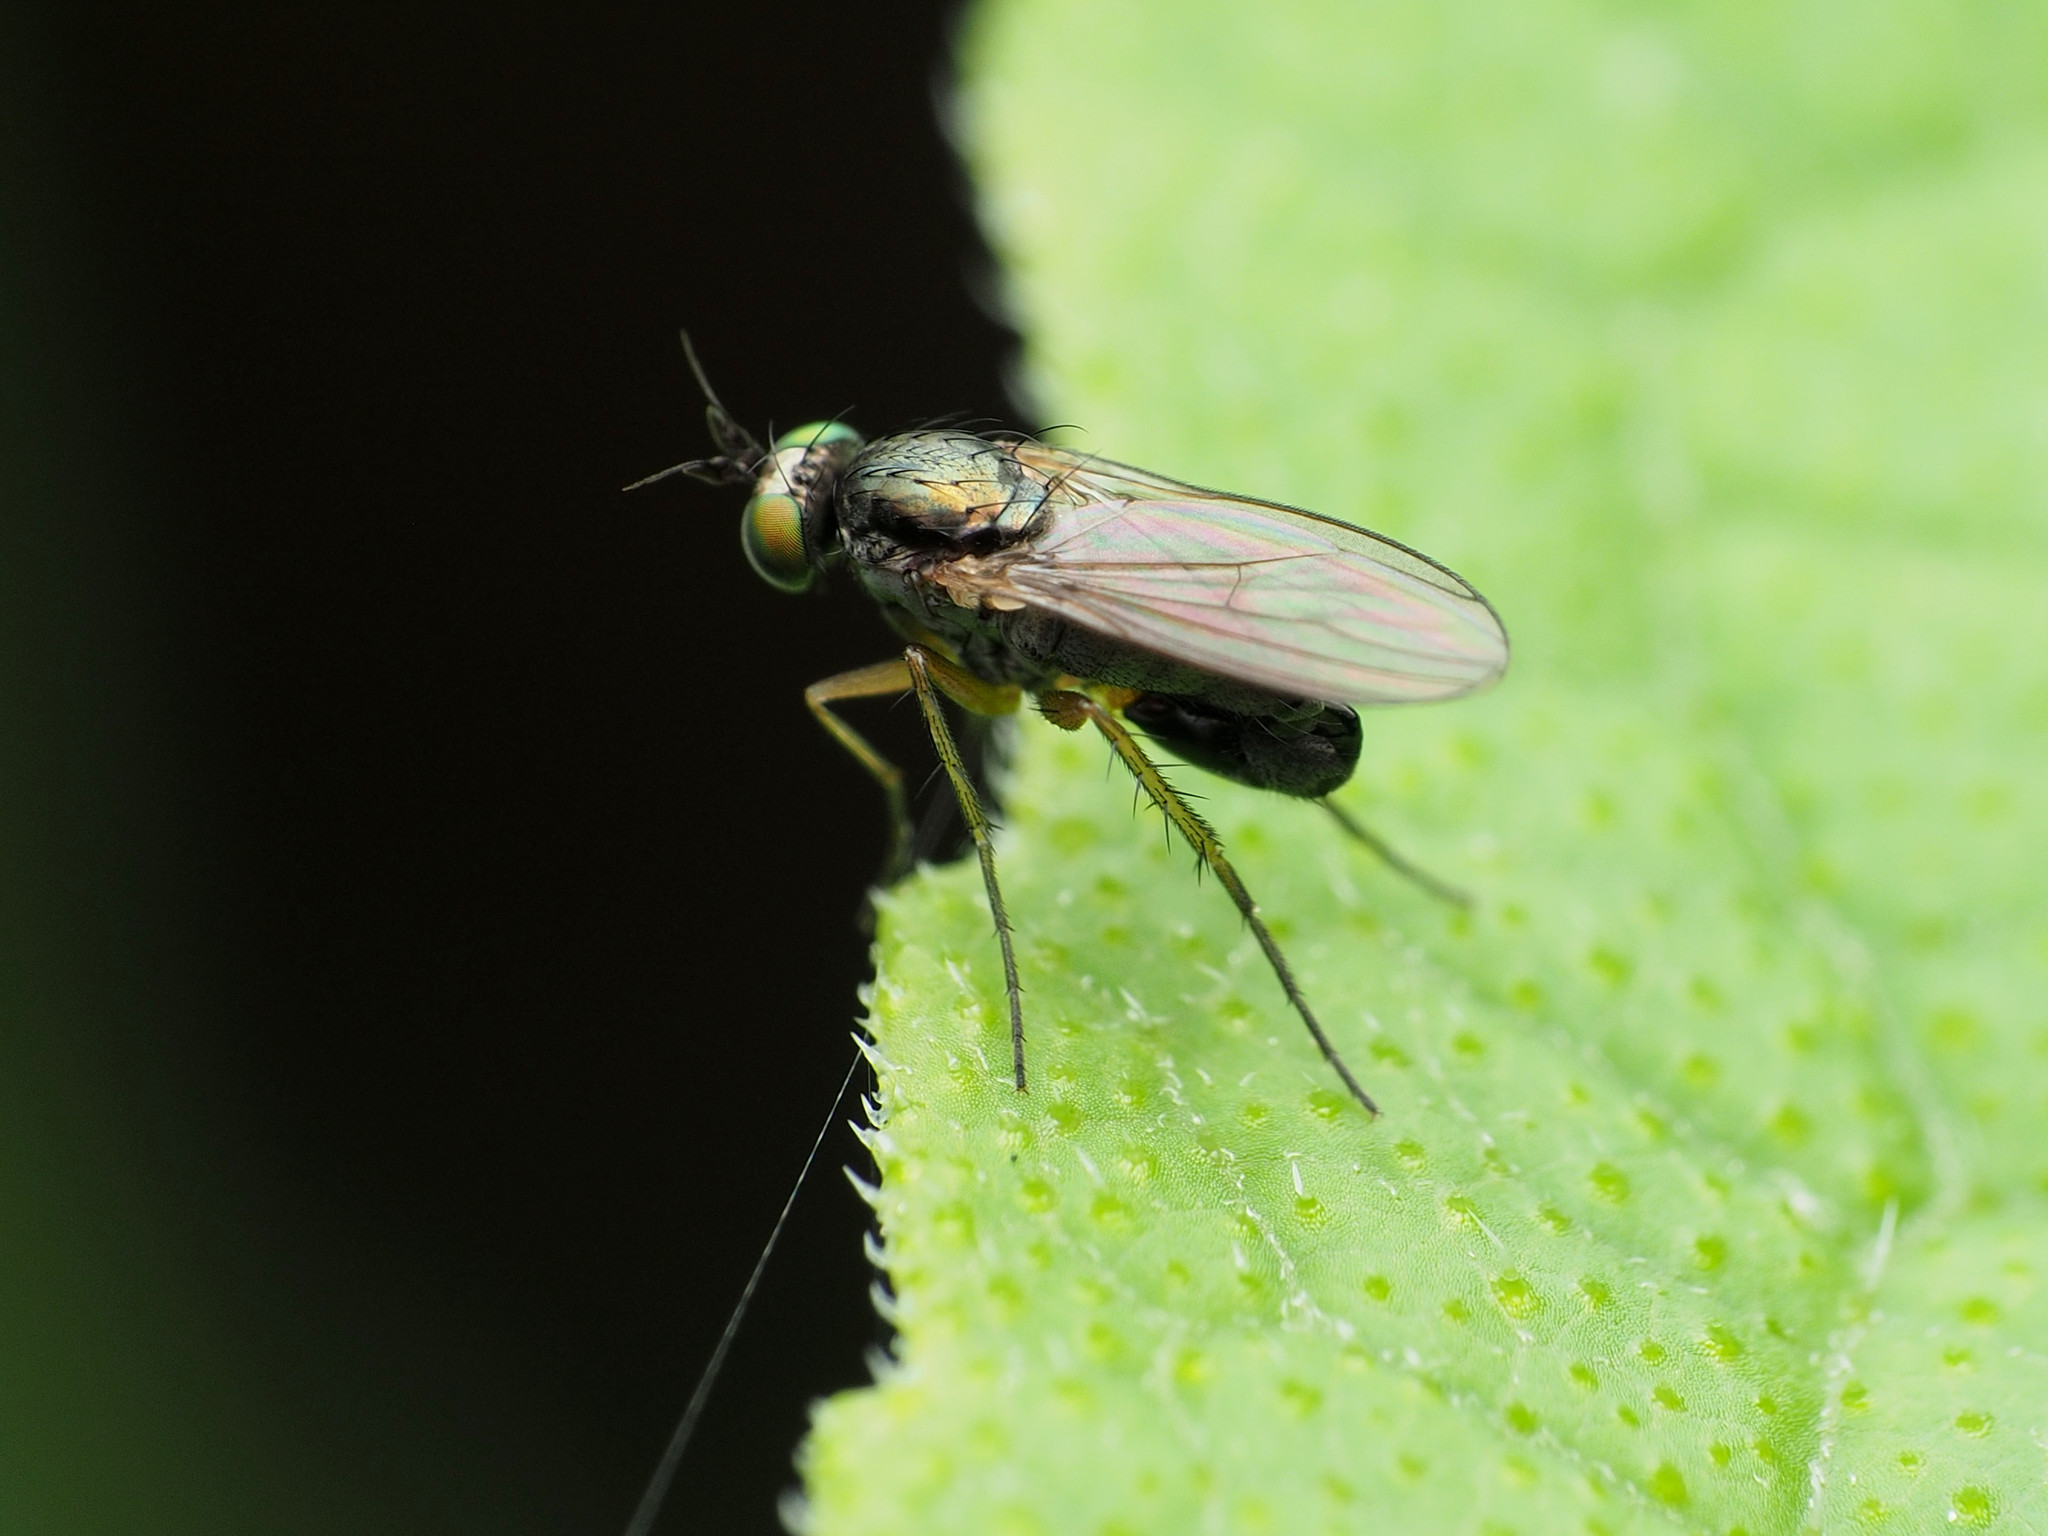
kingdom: Animalia
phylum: Arthropoda
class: Insecta
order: Diptera
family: Dolichopodidae
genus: Gymnopternus
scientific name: Gymnopternus meniscus
